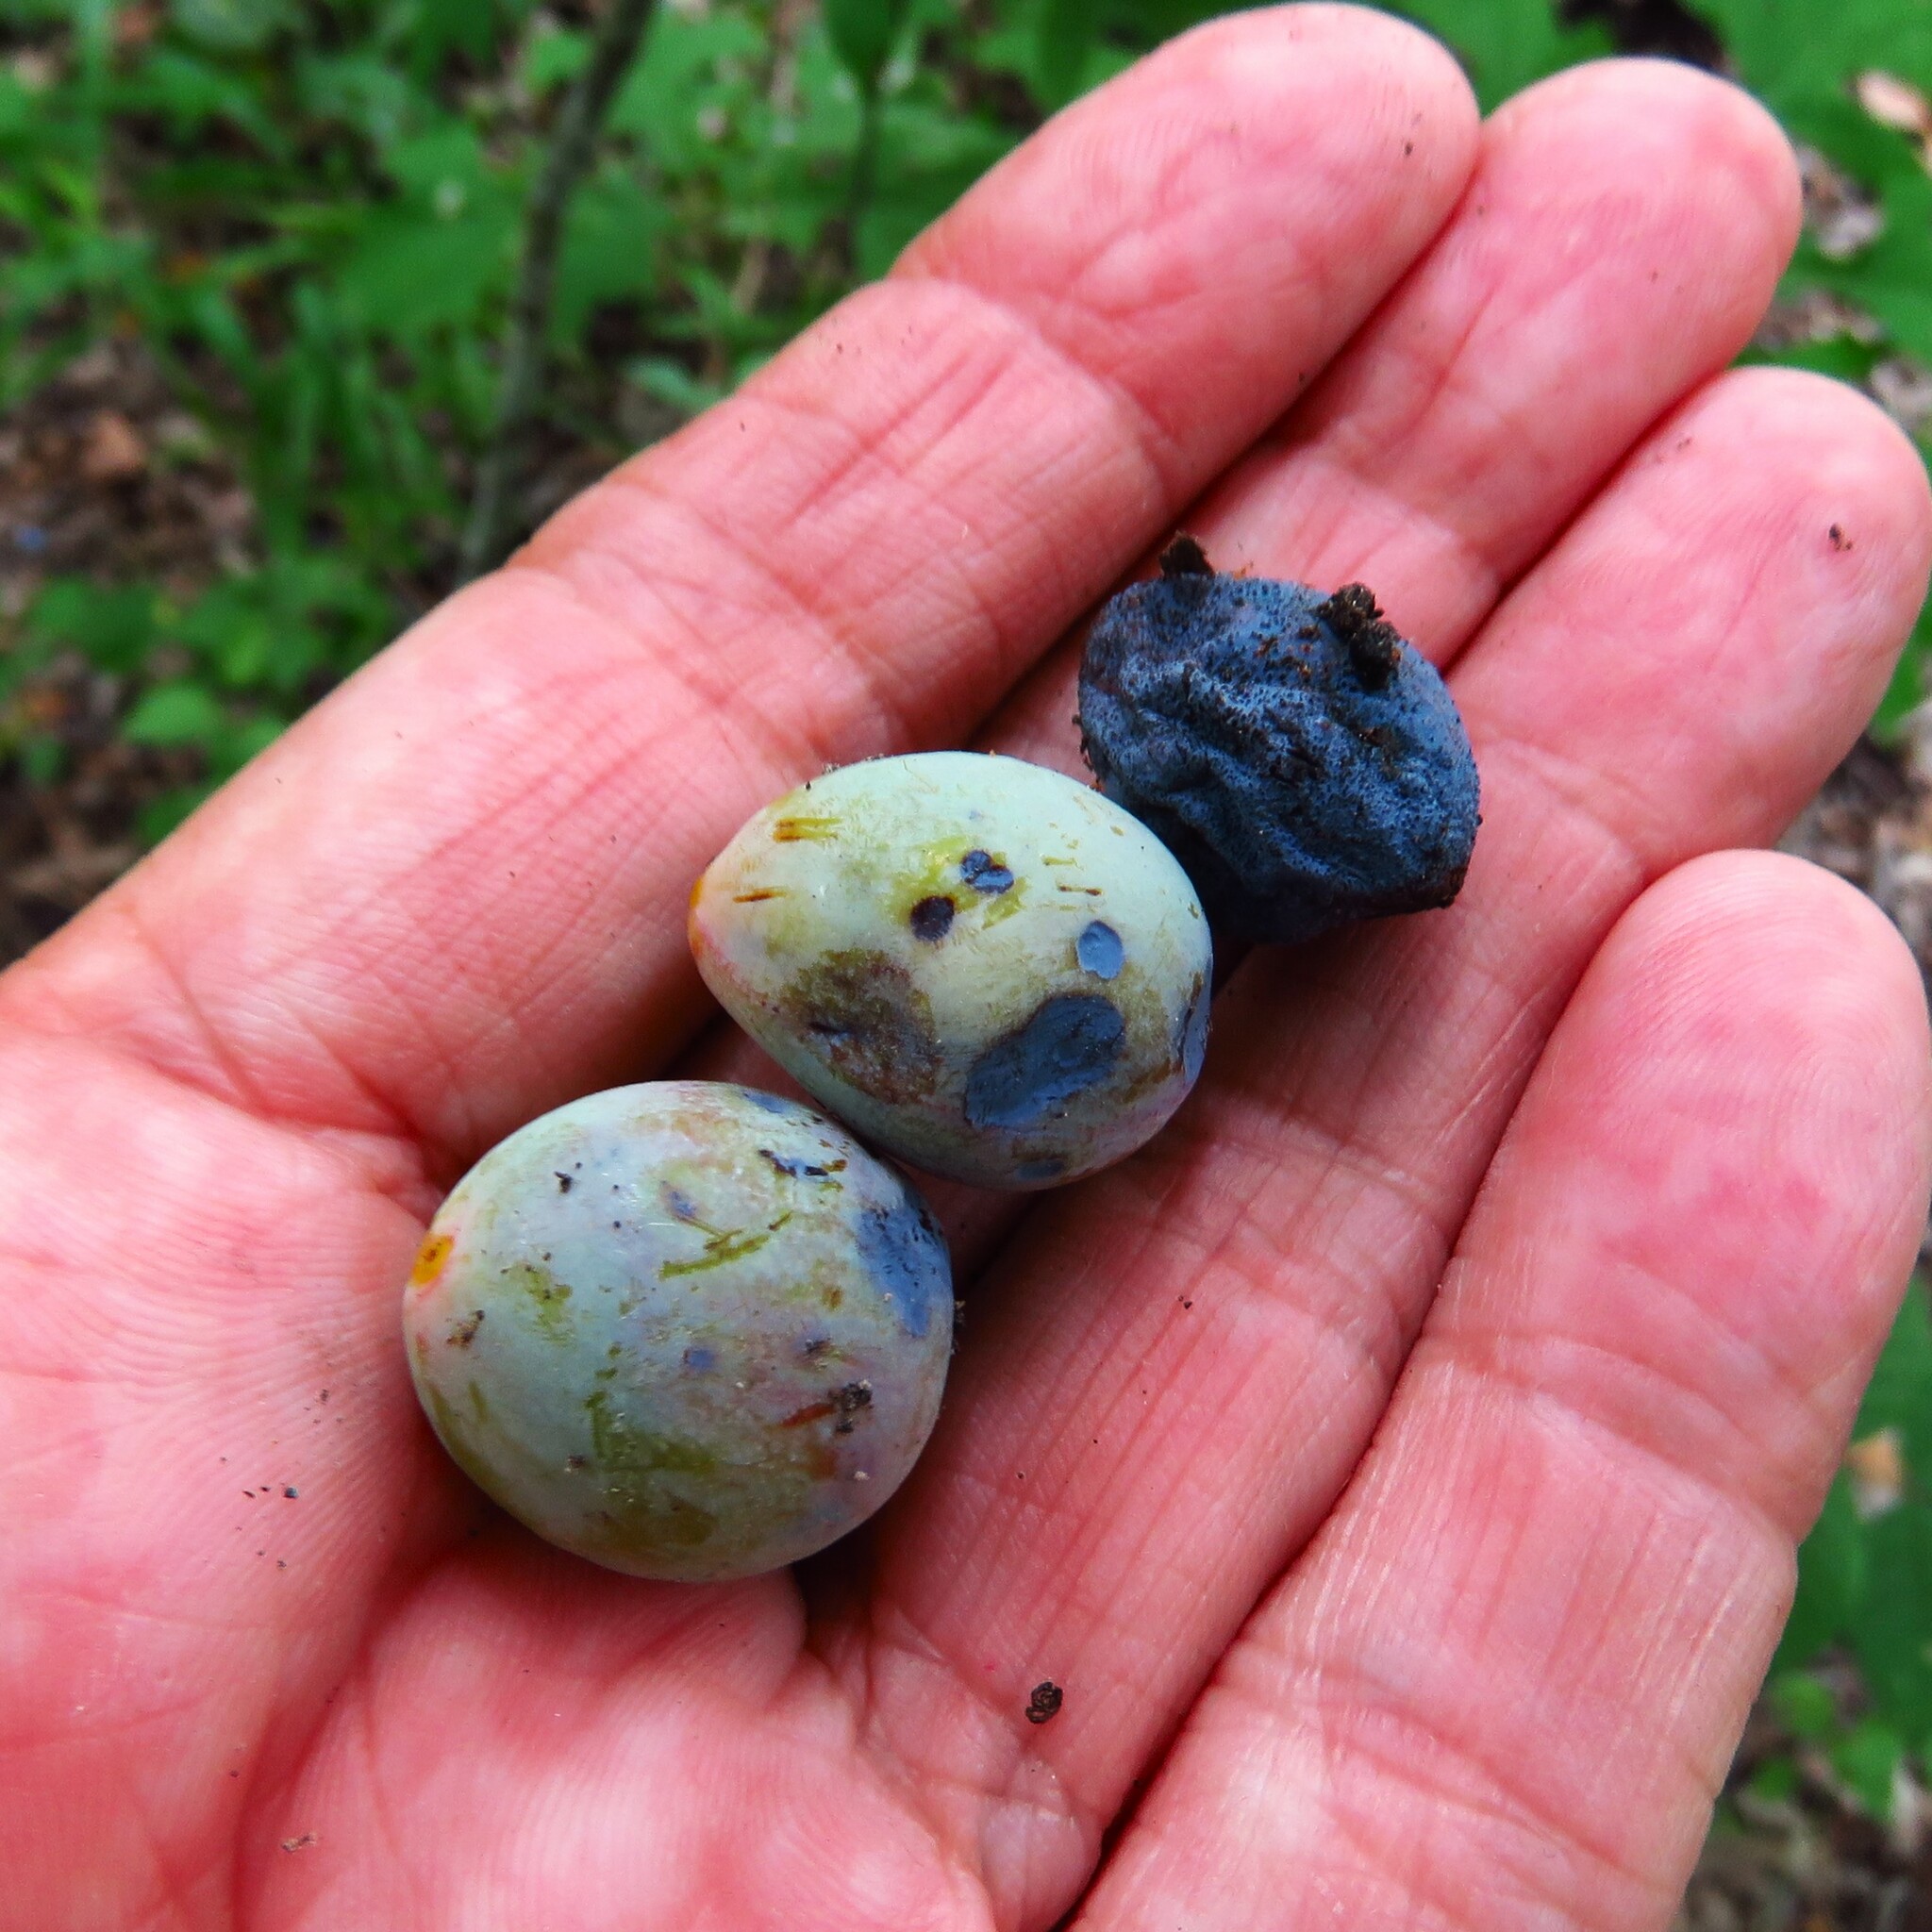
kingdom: Plantae
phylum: Tracheophyta
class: Magnoliopsida
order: Rosales
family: Rosaceae
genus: Prunus
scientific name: Prunus mexicana
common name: Mexican plum
